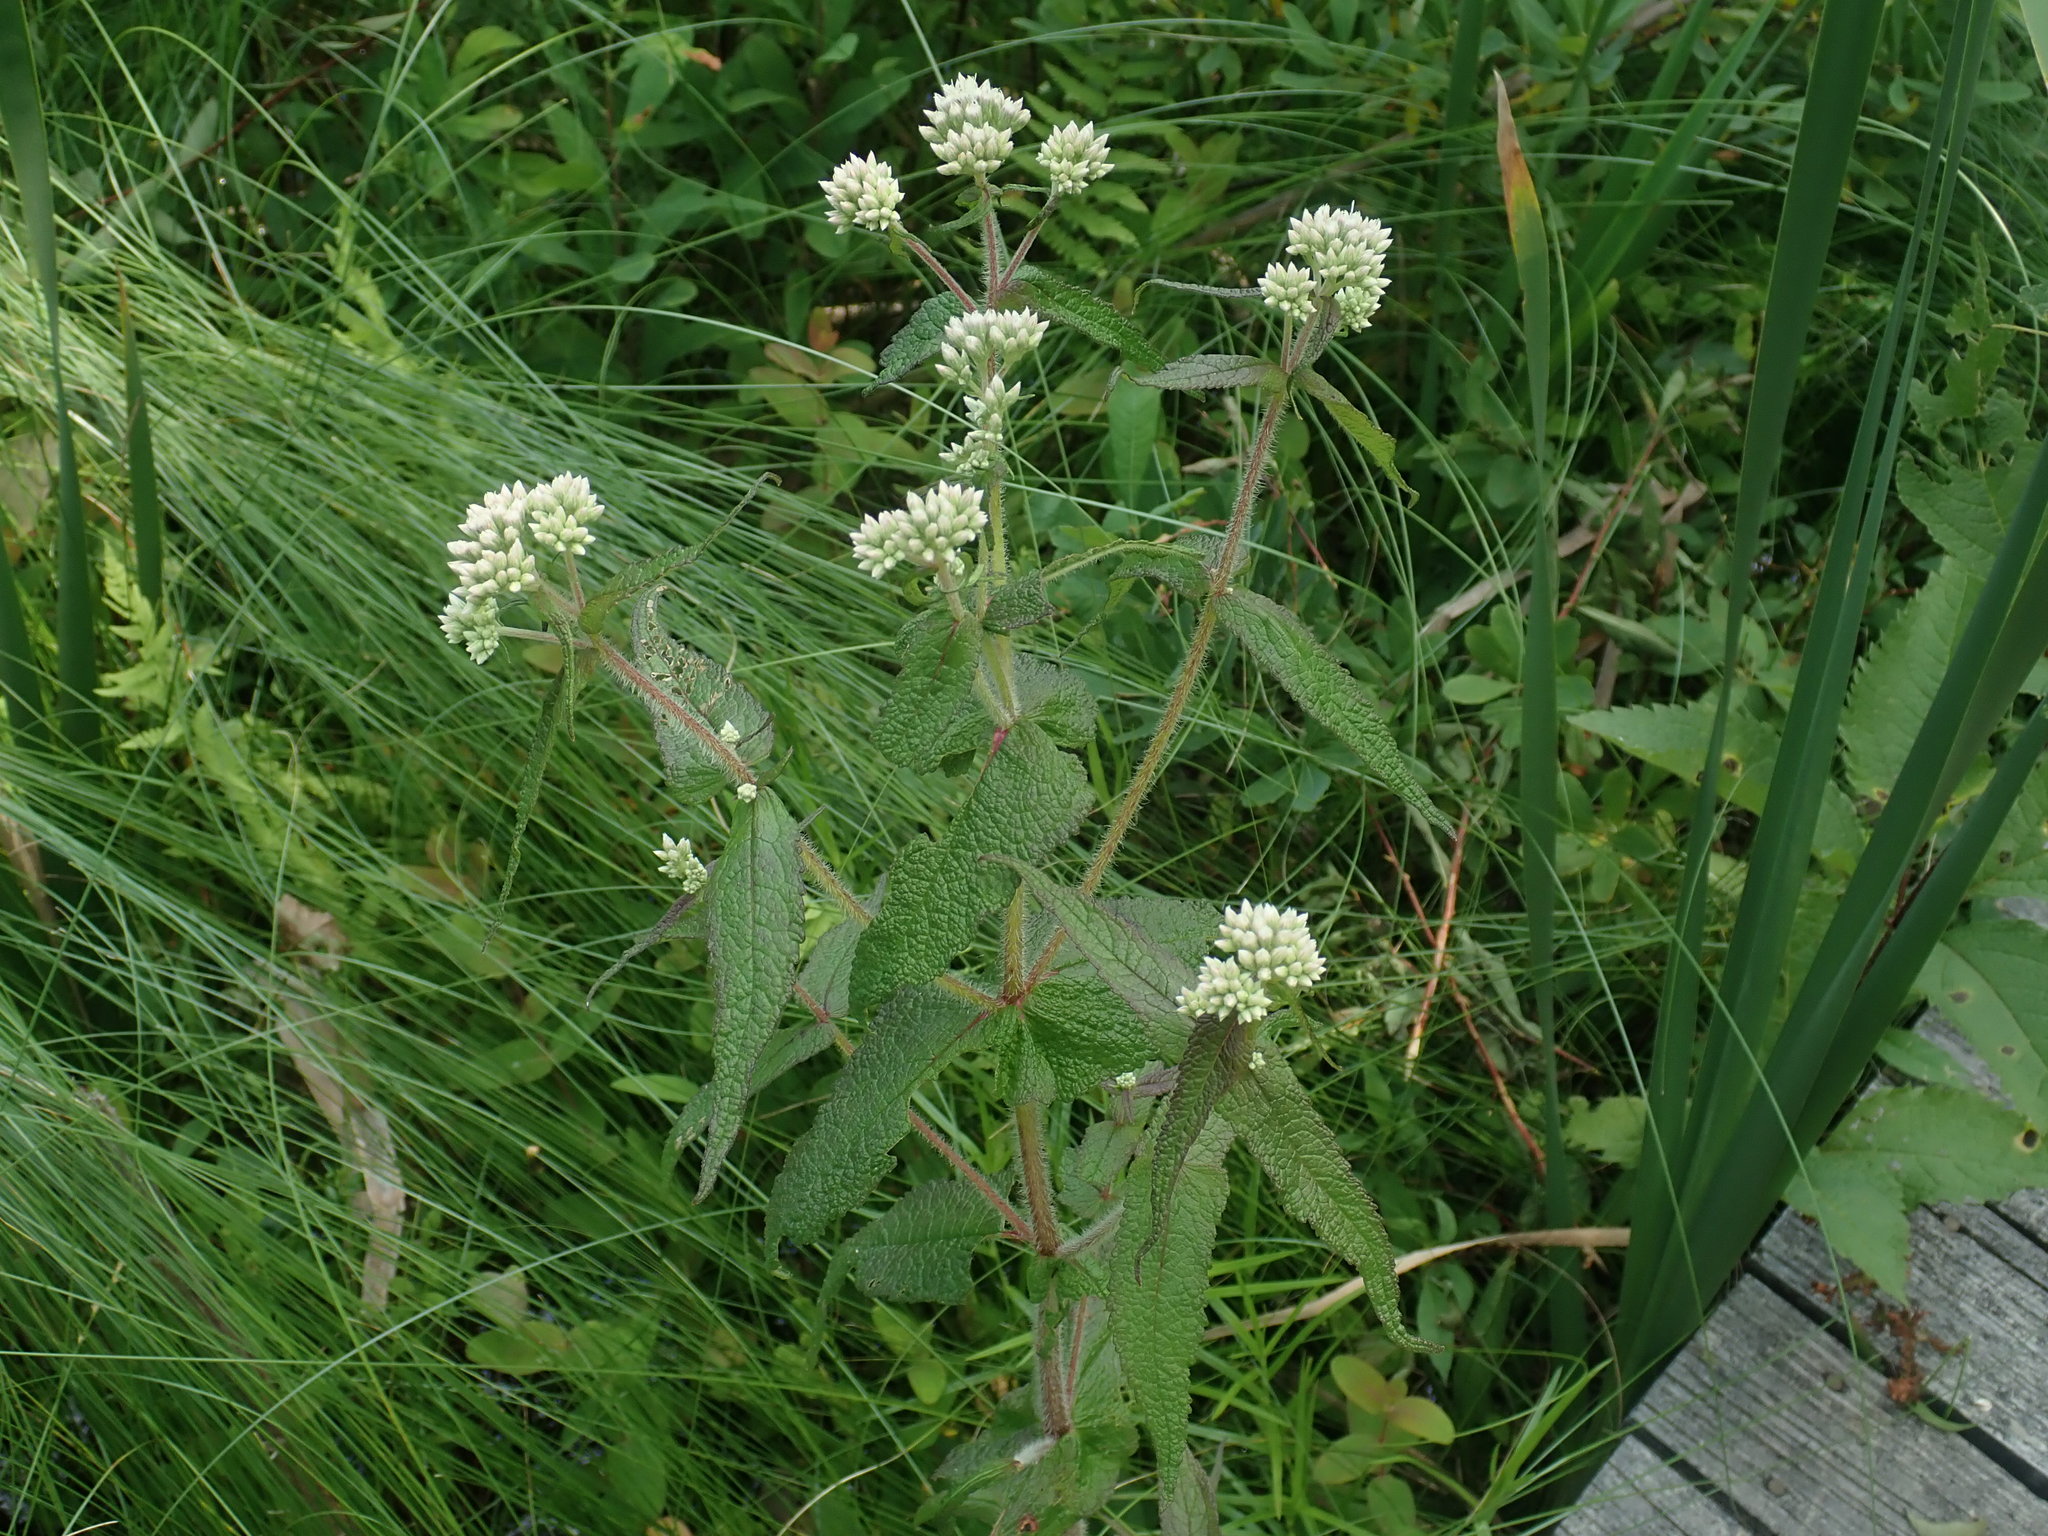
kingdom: Plantae
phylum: Tracheophyta
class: Magnoliopsida
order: Asterales
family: Asteraceae
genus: Eupatorium
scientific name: Eupatorium perfoliatum
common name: Boneset
